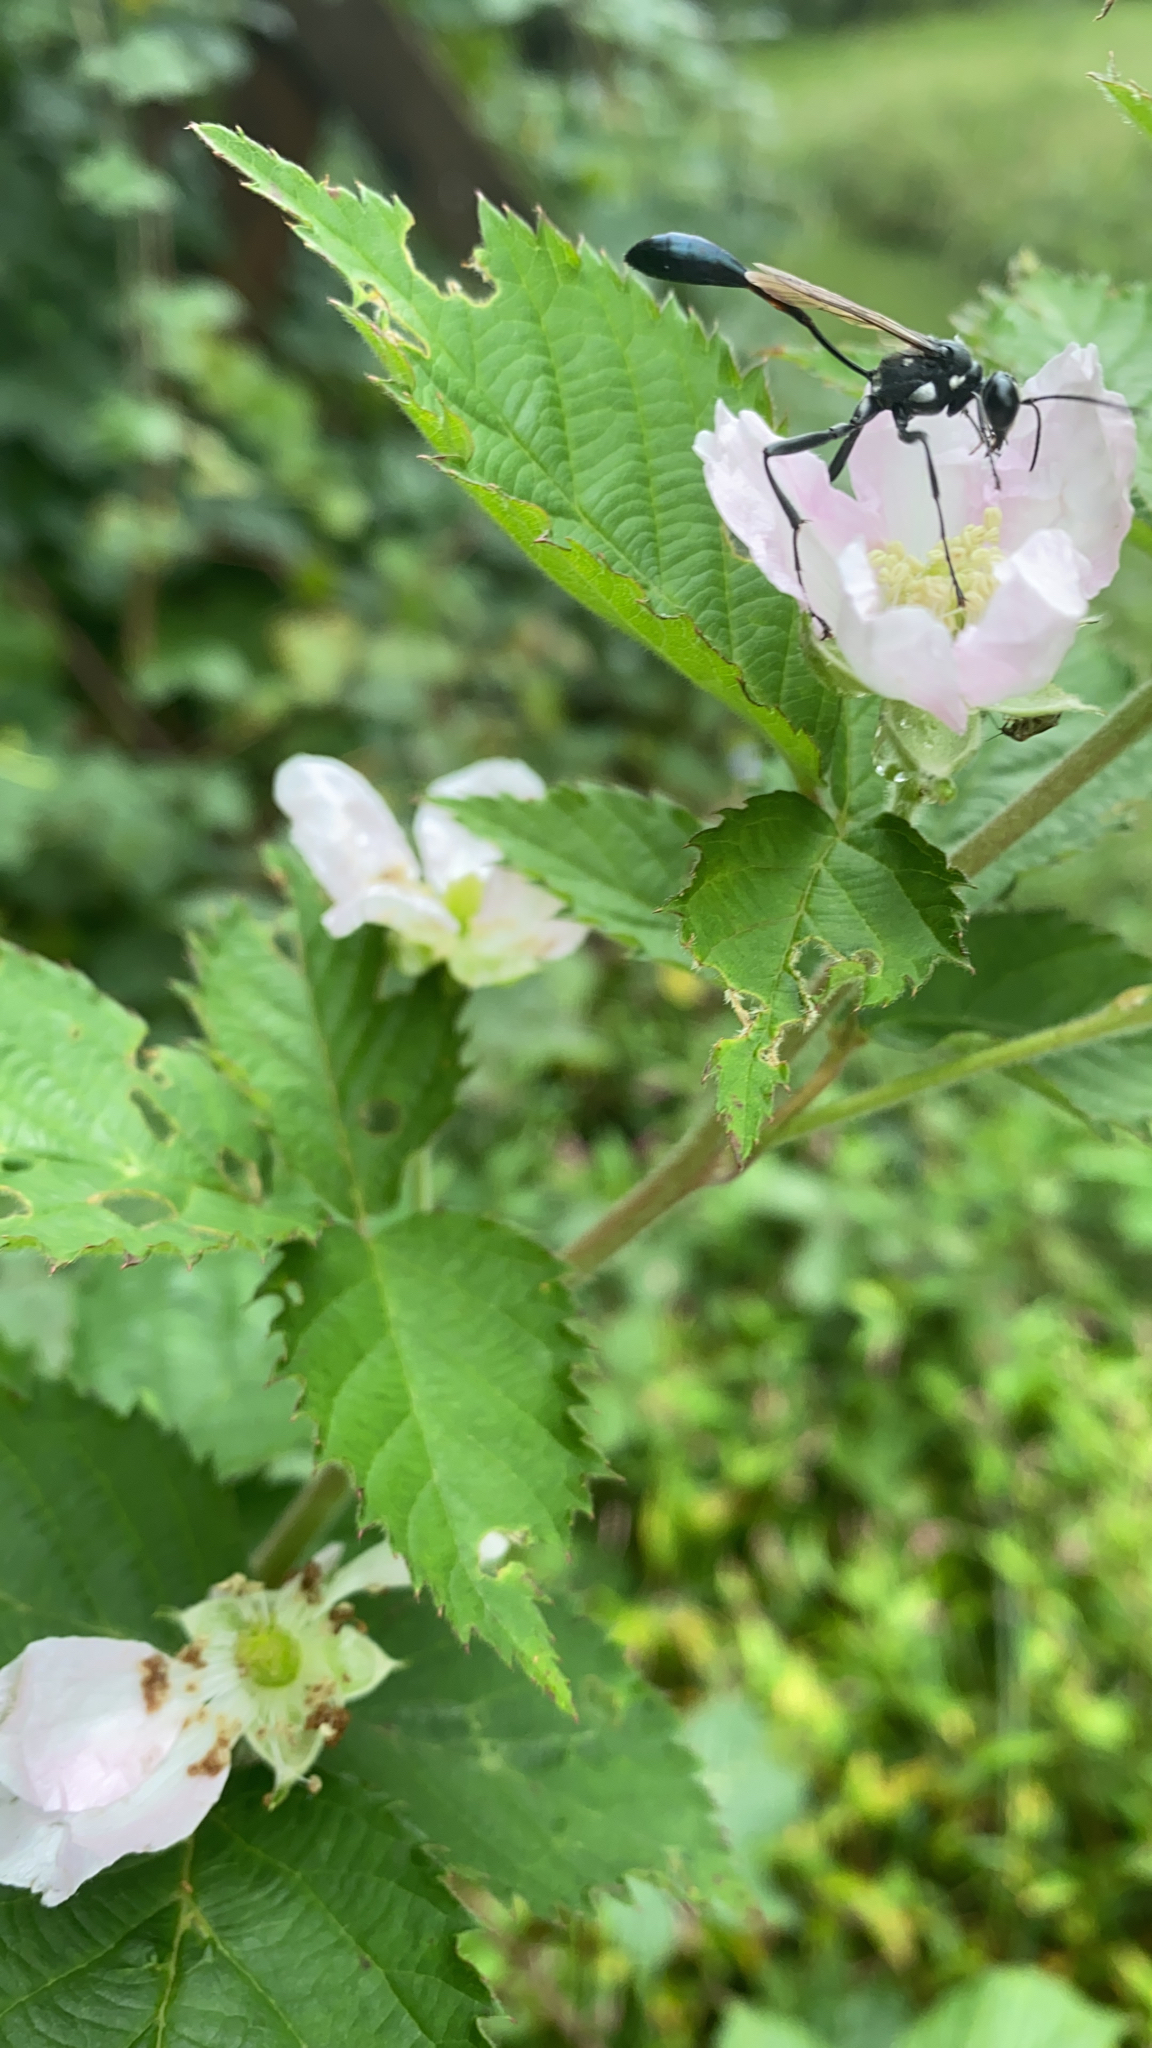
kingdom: Animalia
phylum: Arthropoda
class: Insecta
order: Hymenoptera
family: Sphecidae
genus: Eremnophila
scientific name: Eremnophila aureonotata
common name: Gold-marked thread-waisted wasp
